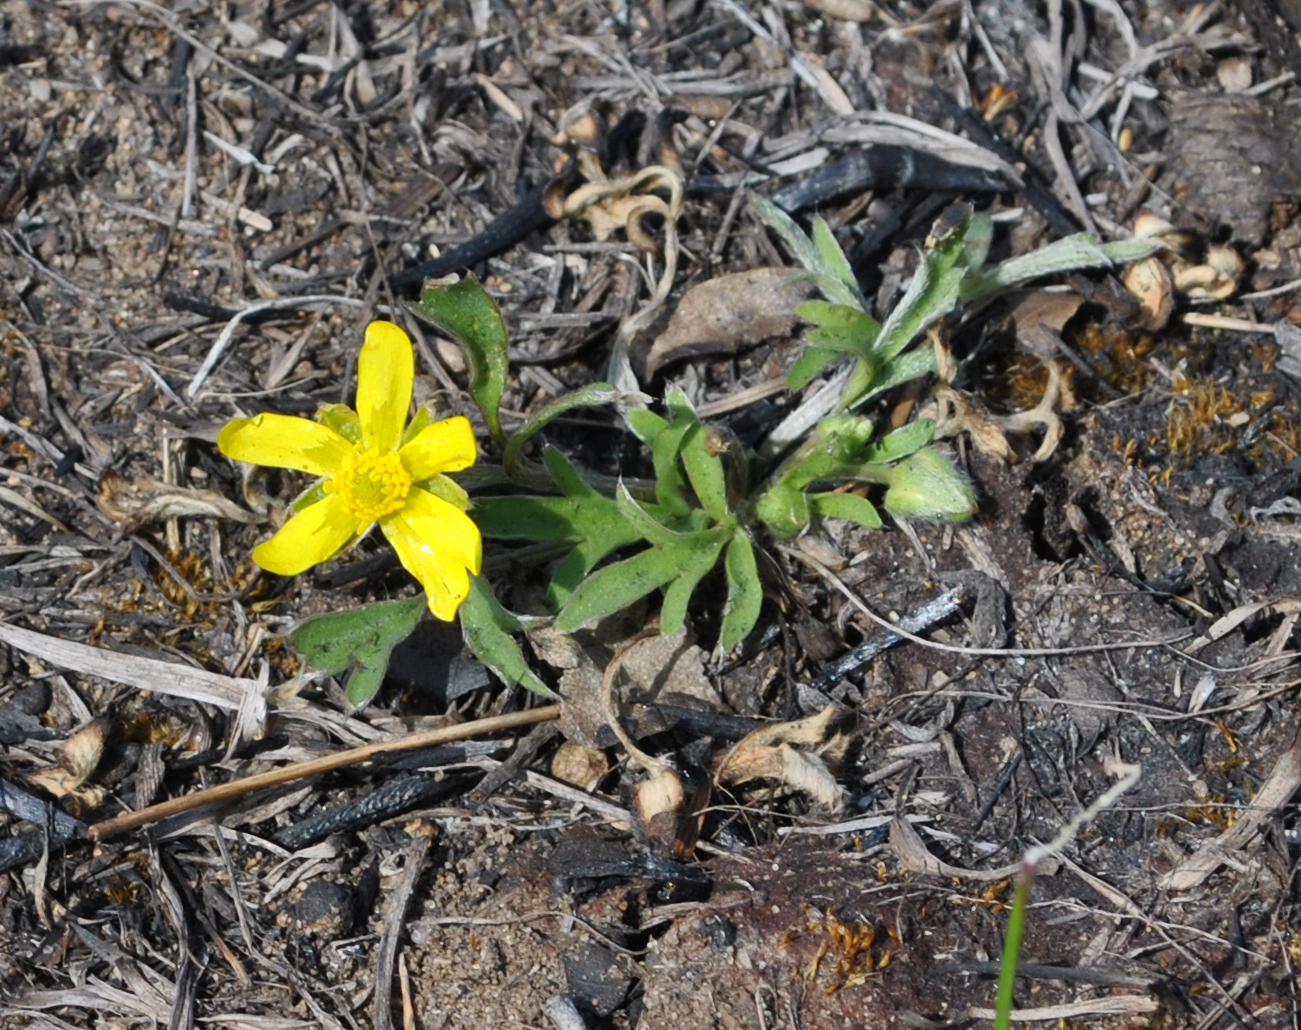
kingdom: Plantae
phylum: Tracheophyta
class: Magnoliopsida
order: Ranunculales
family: Ranunculaceae
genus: Ranunculus
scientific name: Ranunculus fascicularis
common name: Early buttercup
